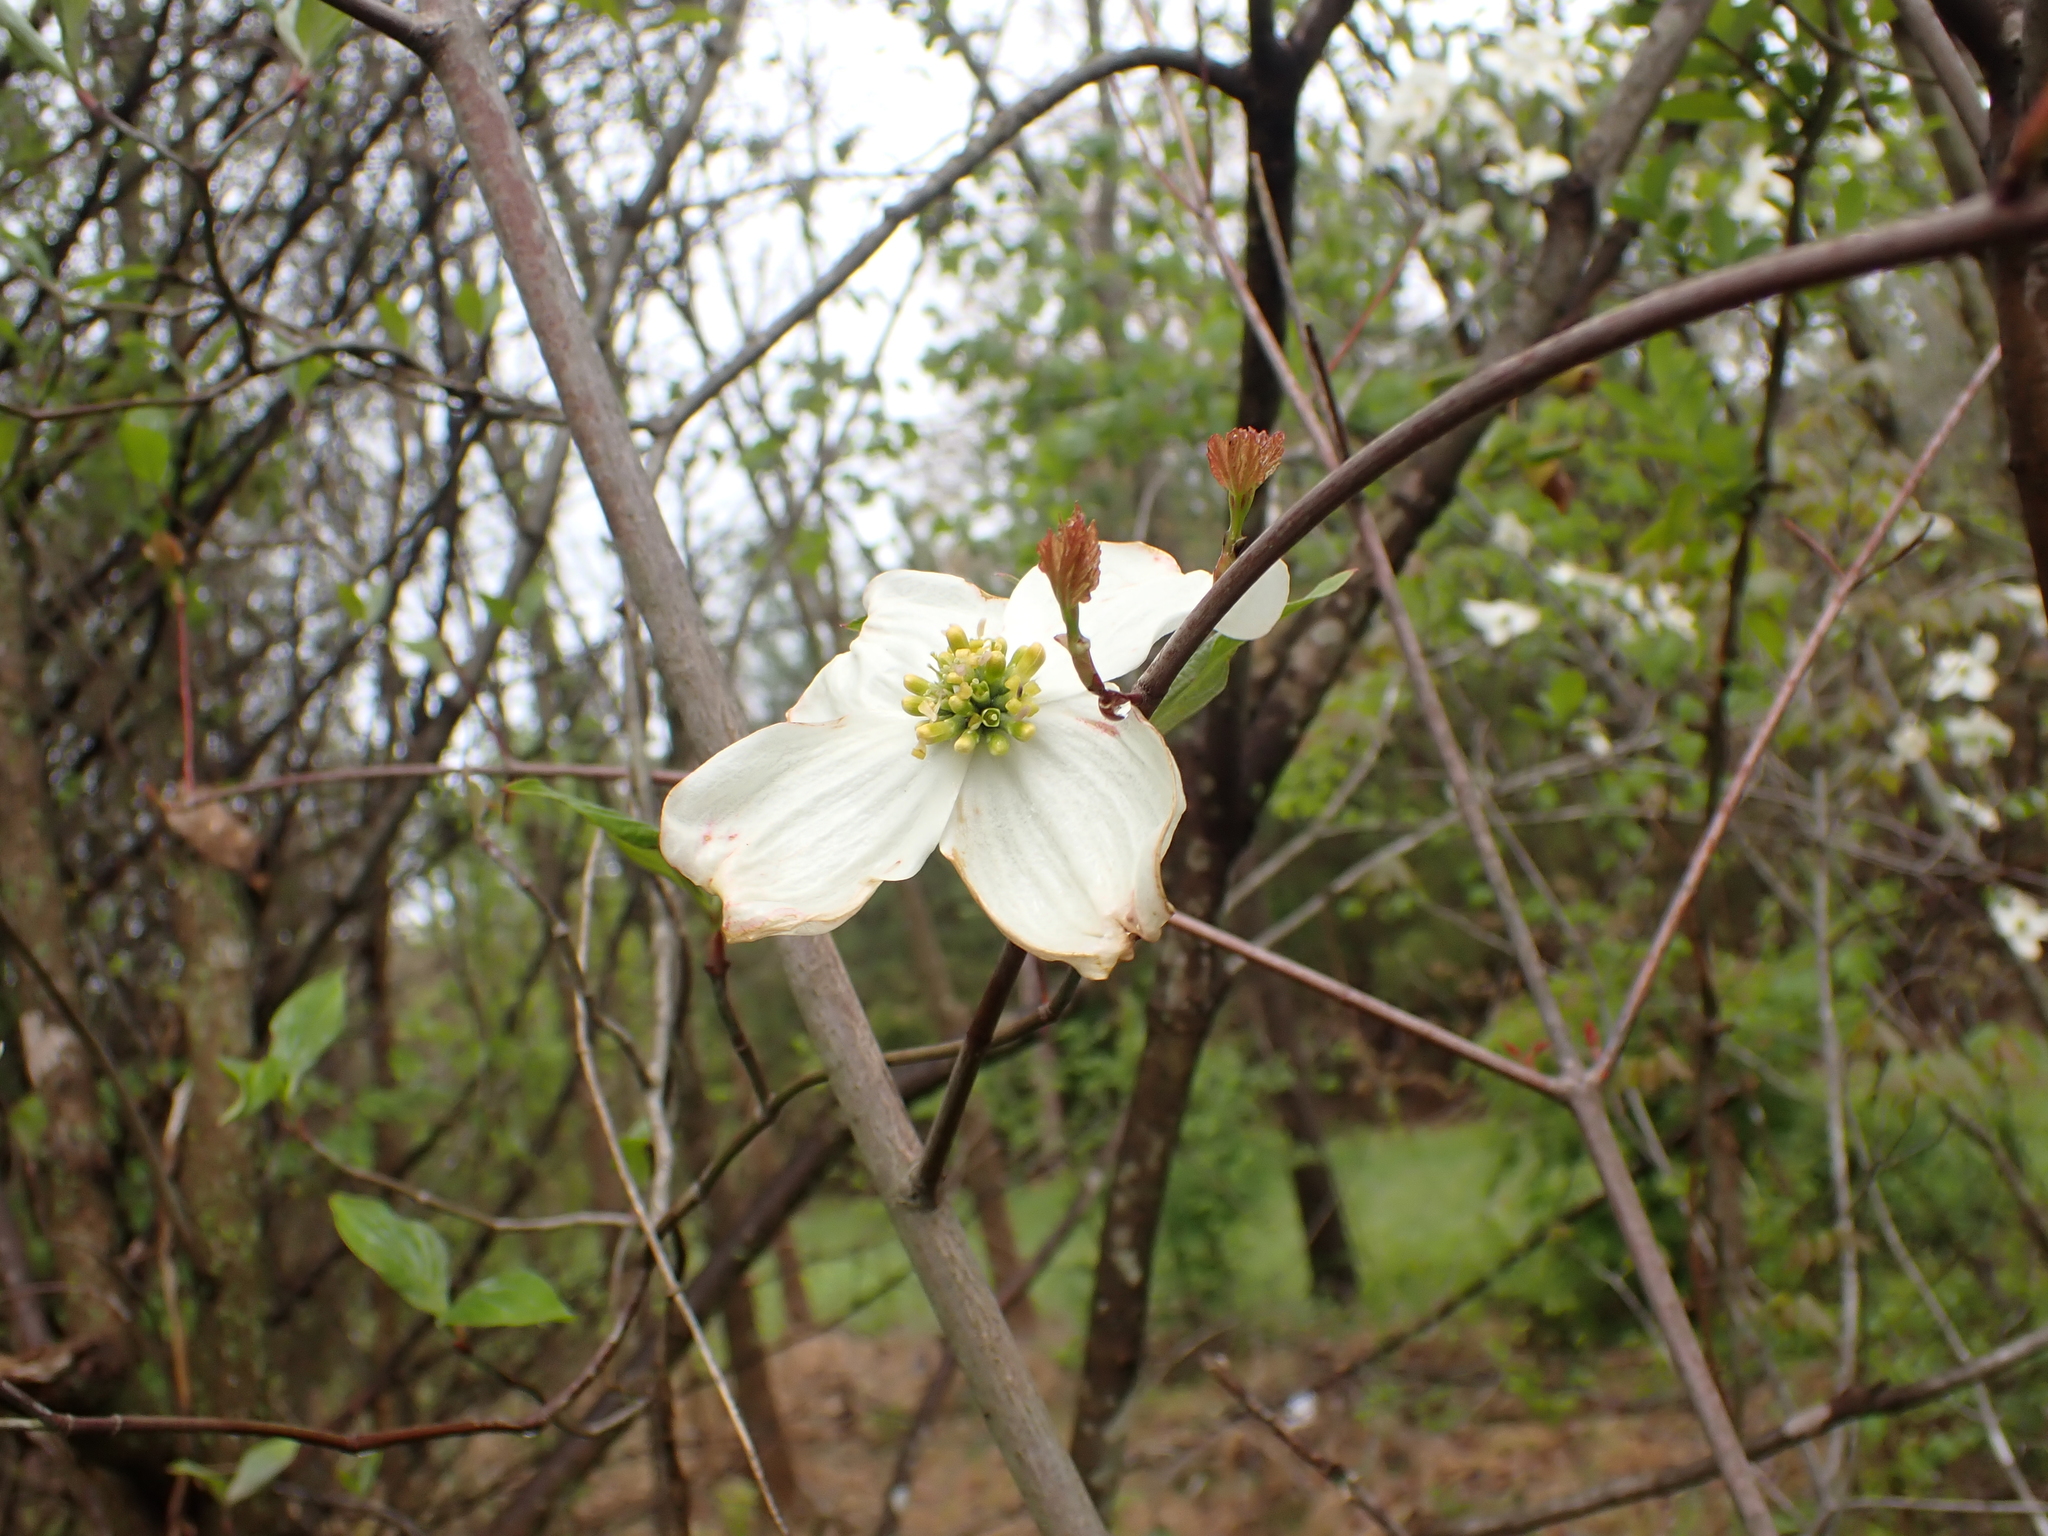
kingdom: Plantae
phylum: Tracheophyta
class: Magnoliopsida
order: Cornales
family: Cornaceae
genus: Cornus
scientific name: Cornus florida
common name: Flowering dogwood
